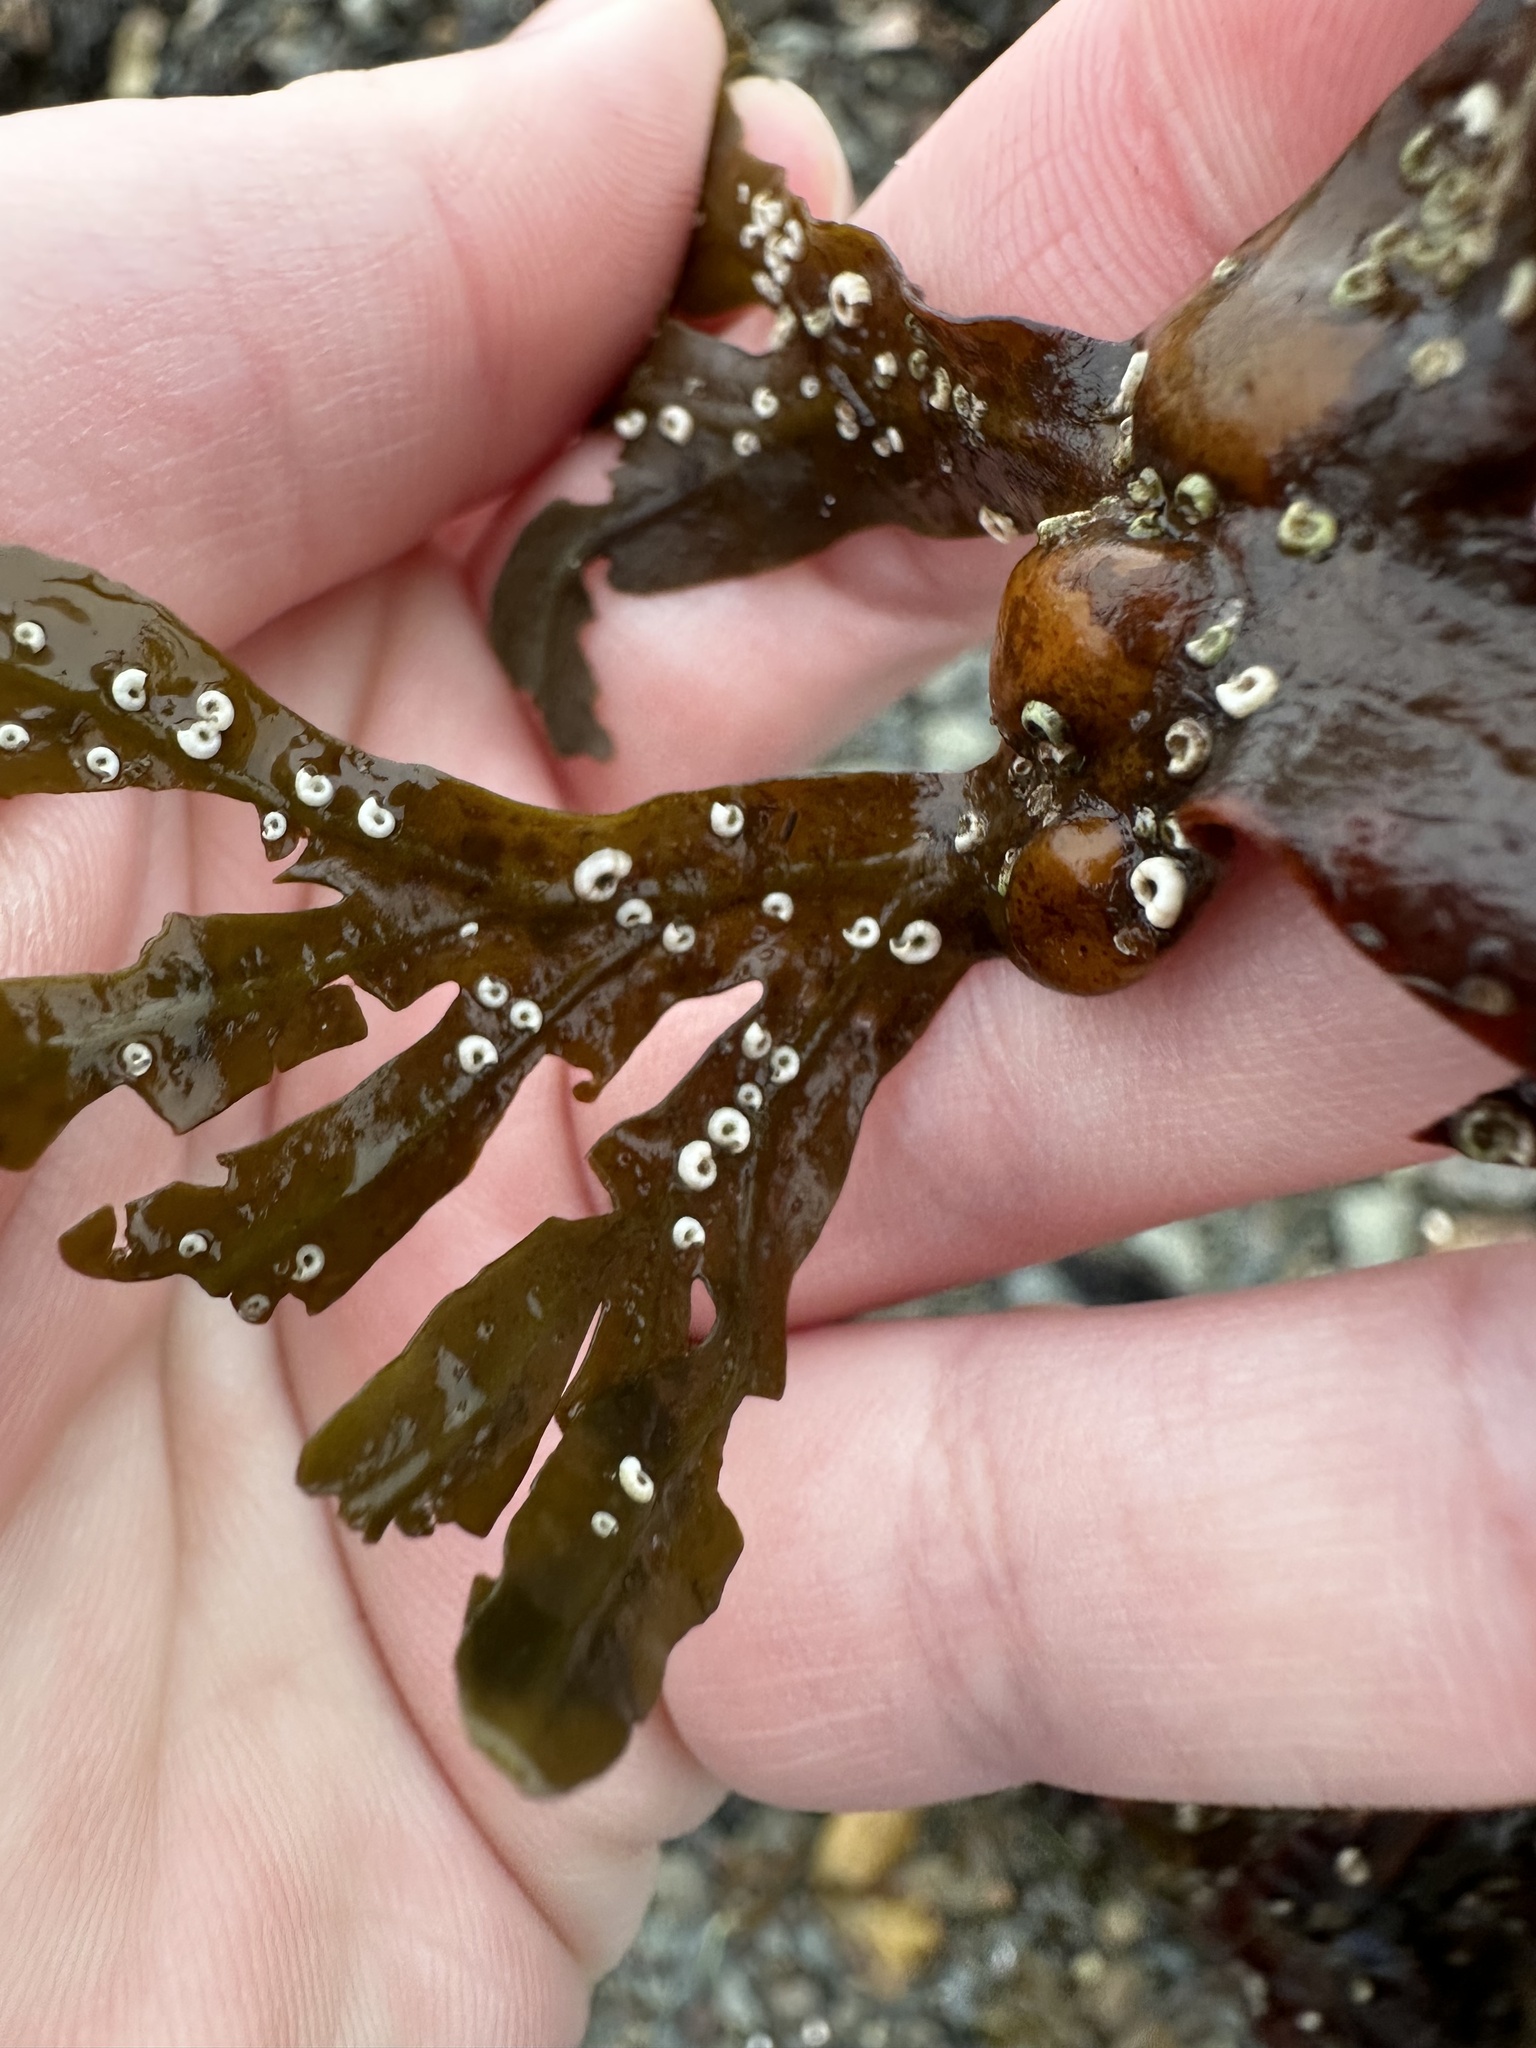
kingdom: Animalia
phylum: Annelida
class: Polychaeta
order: Sabellida
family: Serpulidae
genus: Spirorbis
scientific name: Spirorbis spirorbis
